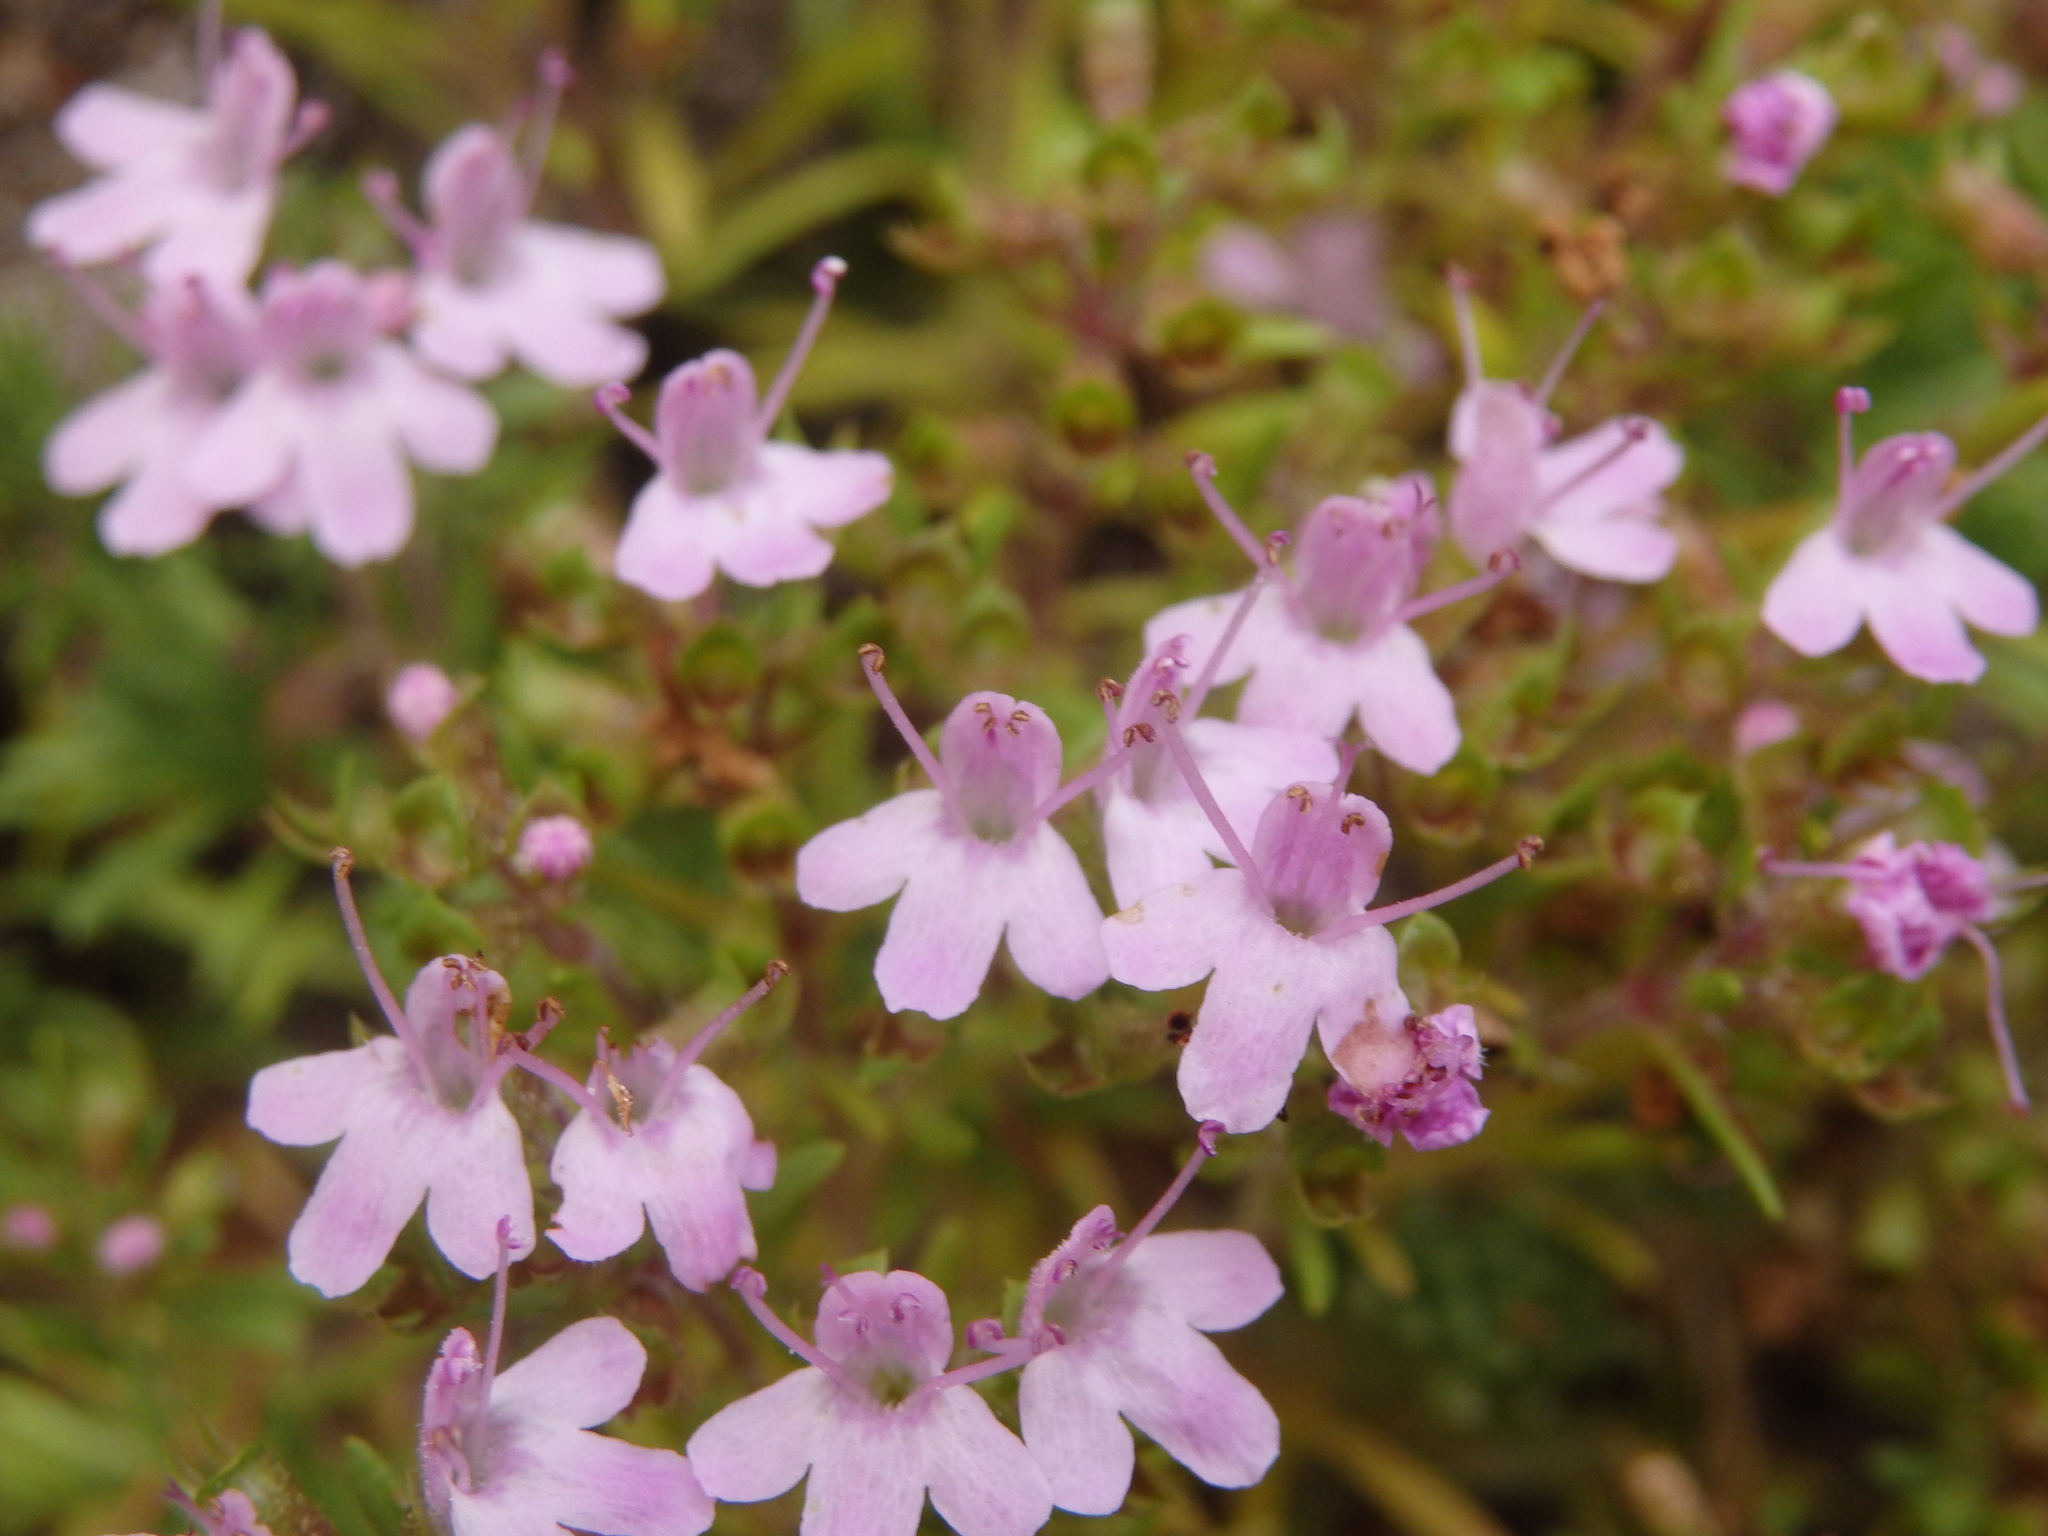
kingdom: Plantae
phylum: Tracheophyta
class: Magnoliopsida
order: Lamiales
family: Lamiaceae
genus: Thymus
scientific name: Thymus caespititius
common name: Azores thyme
